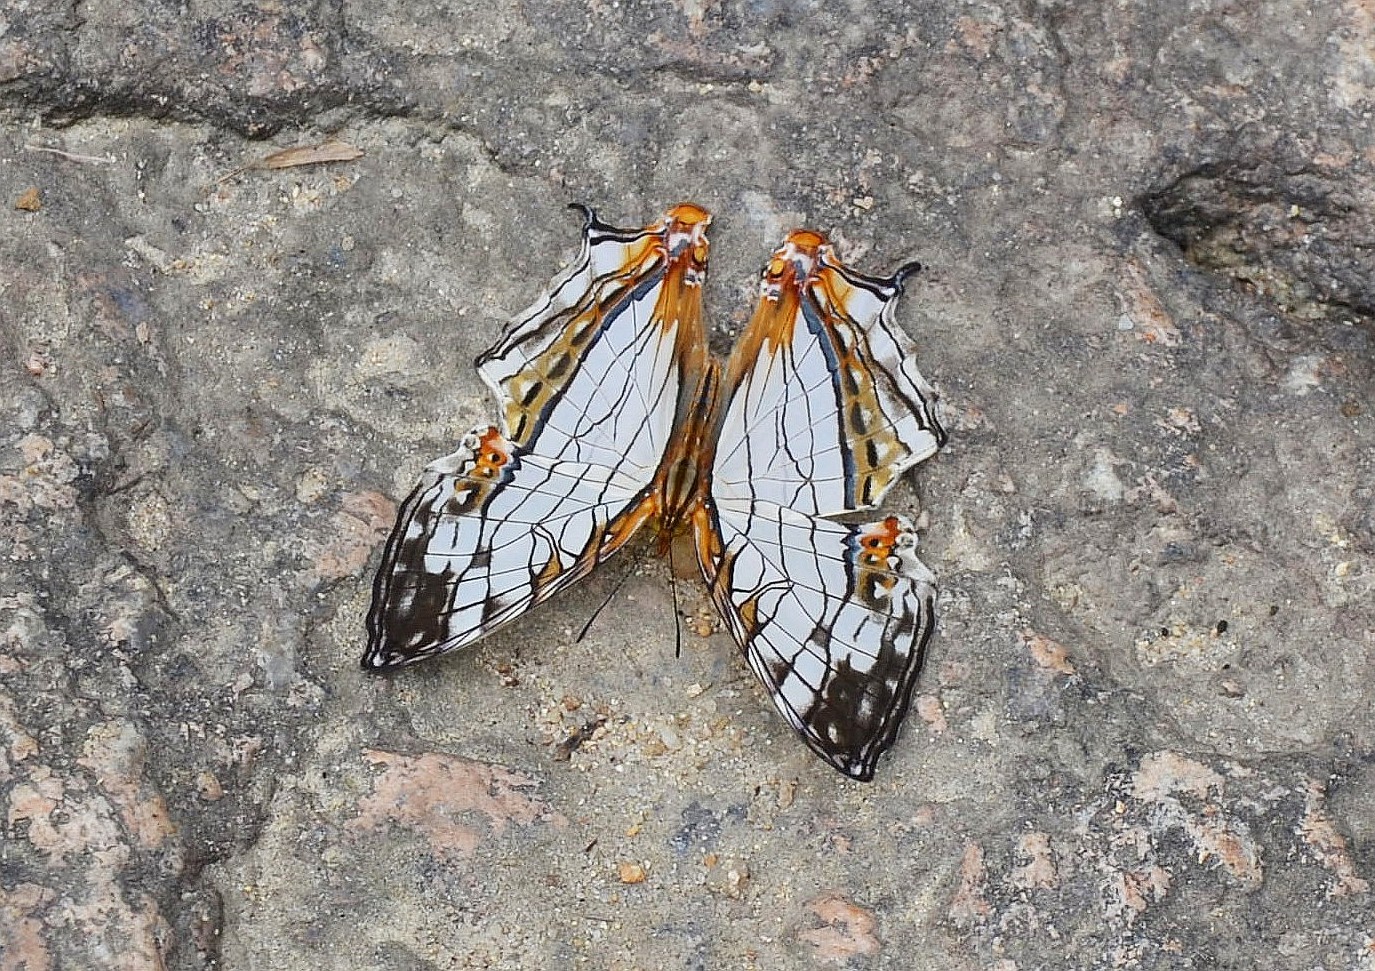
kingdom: Animalia
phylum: Arthropoda
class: Insecta
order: Lepidoptera
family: Nymphalidae
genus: Cyrestis
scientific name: Cyrestis thyodamas
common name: Common mapwing
